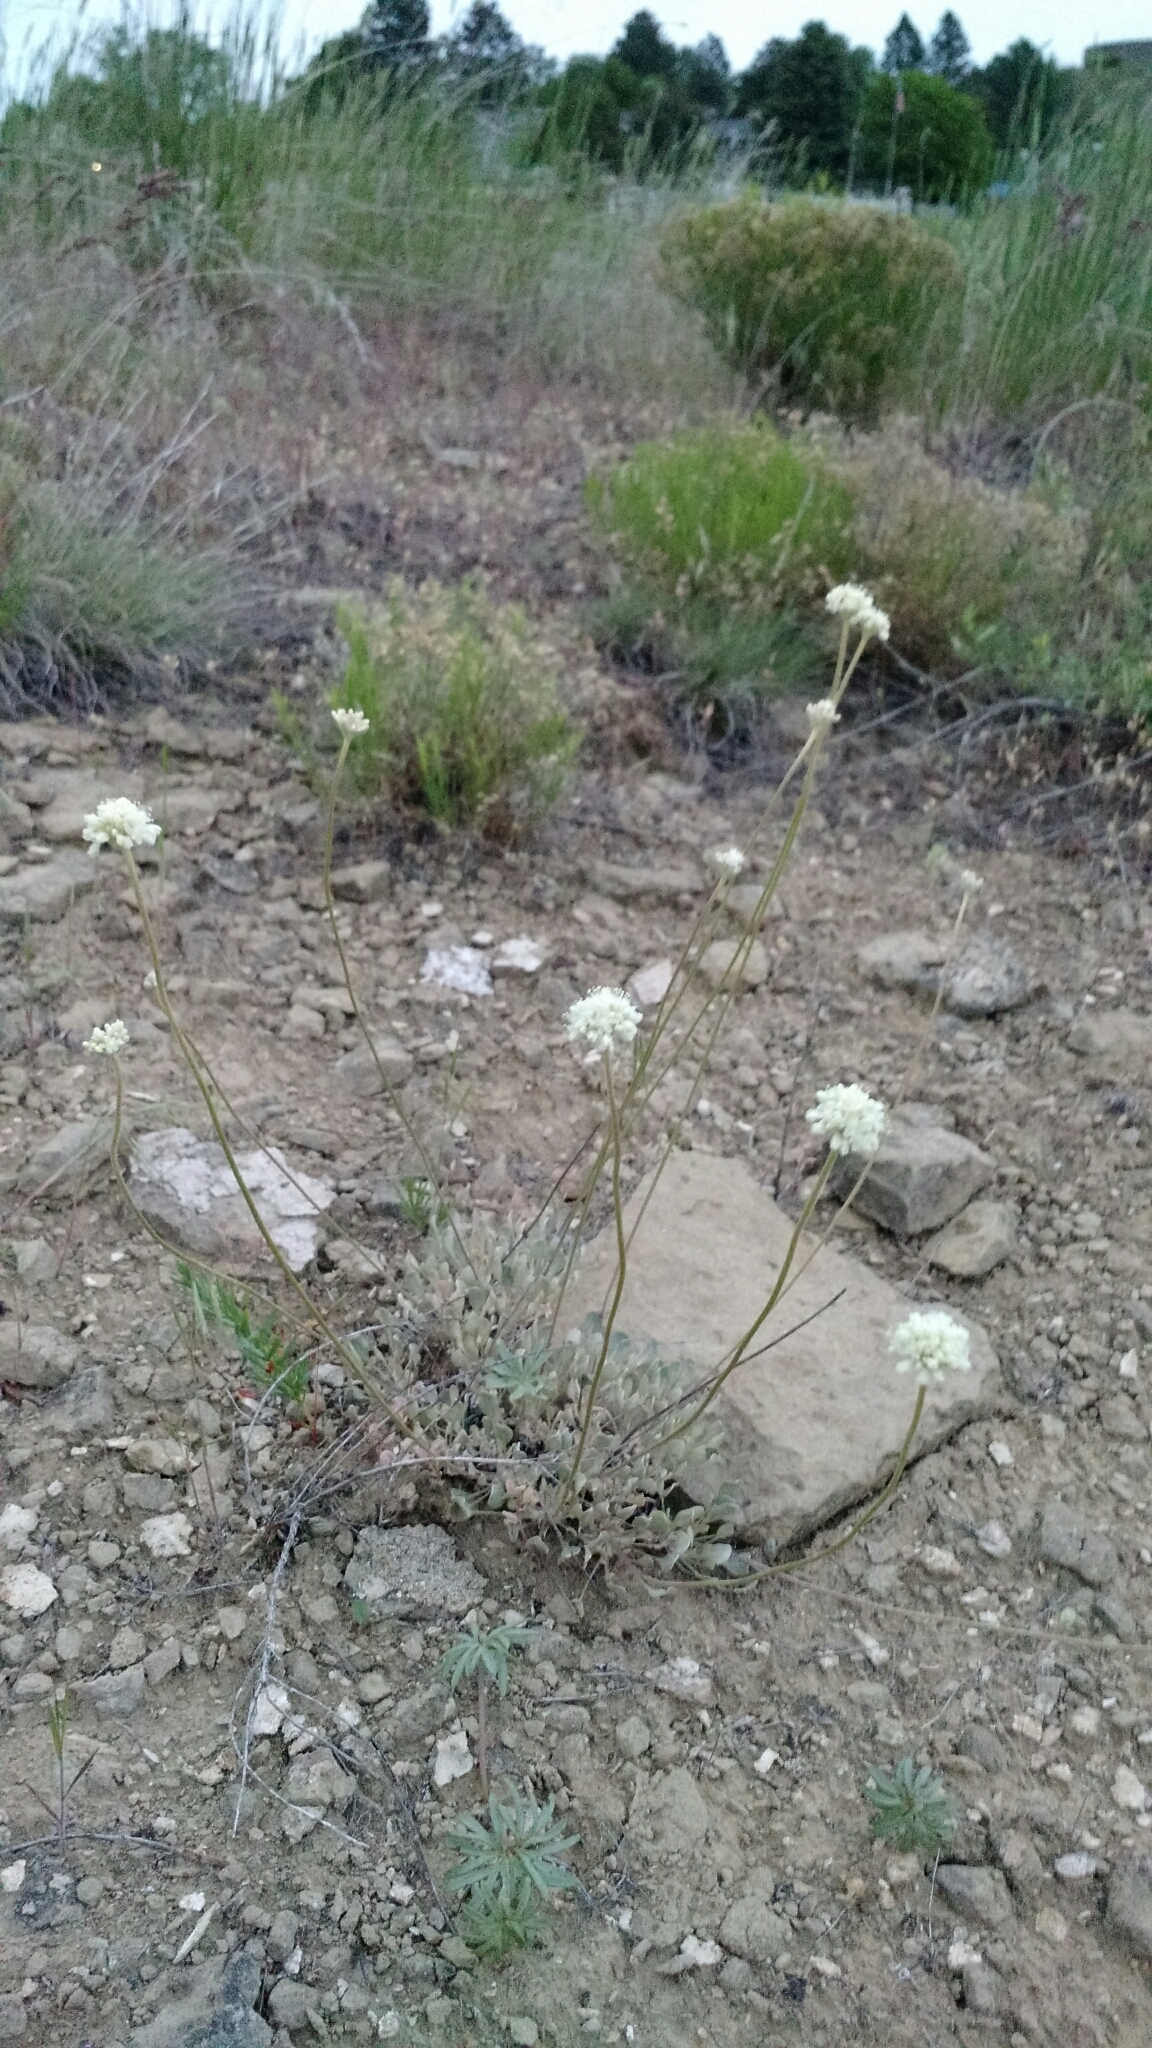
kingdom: Plantae
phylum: Tracheophyta
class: Magnoliopsida
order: Caryophyllales
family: Polygonaceae
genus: Eriogonum
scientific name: Eriogonum ovalifolium
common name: Cushion buckwheat
